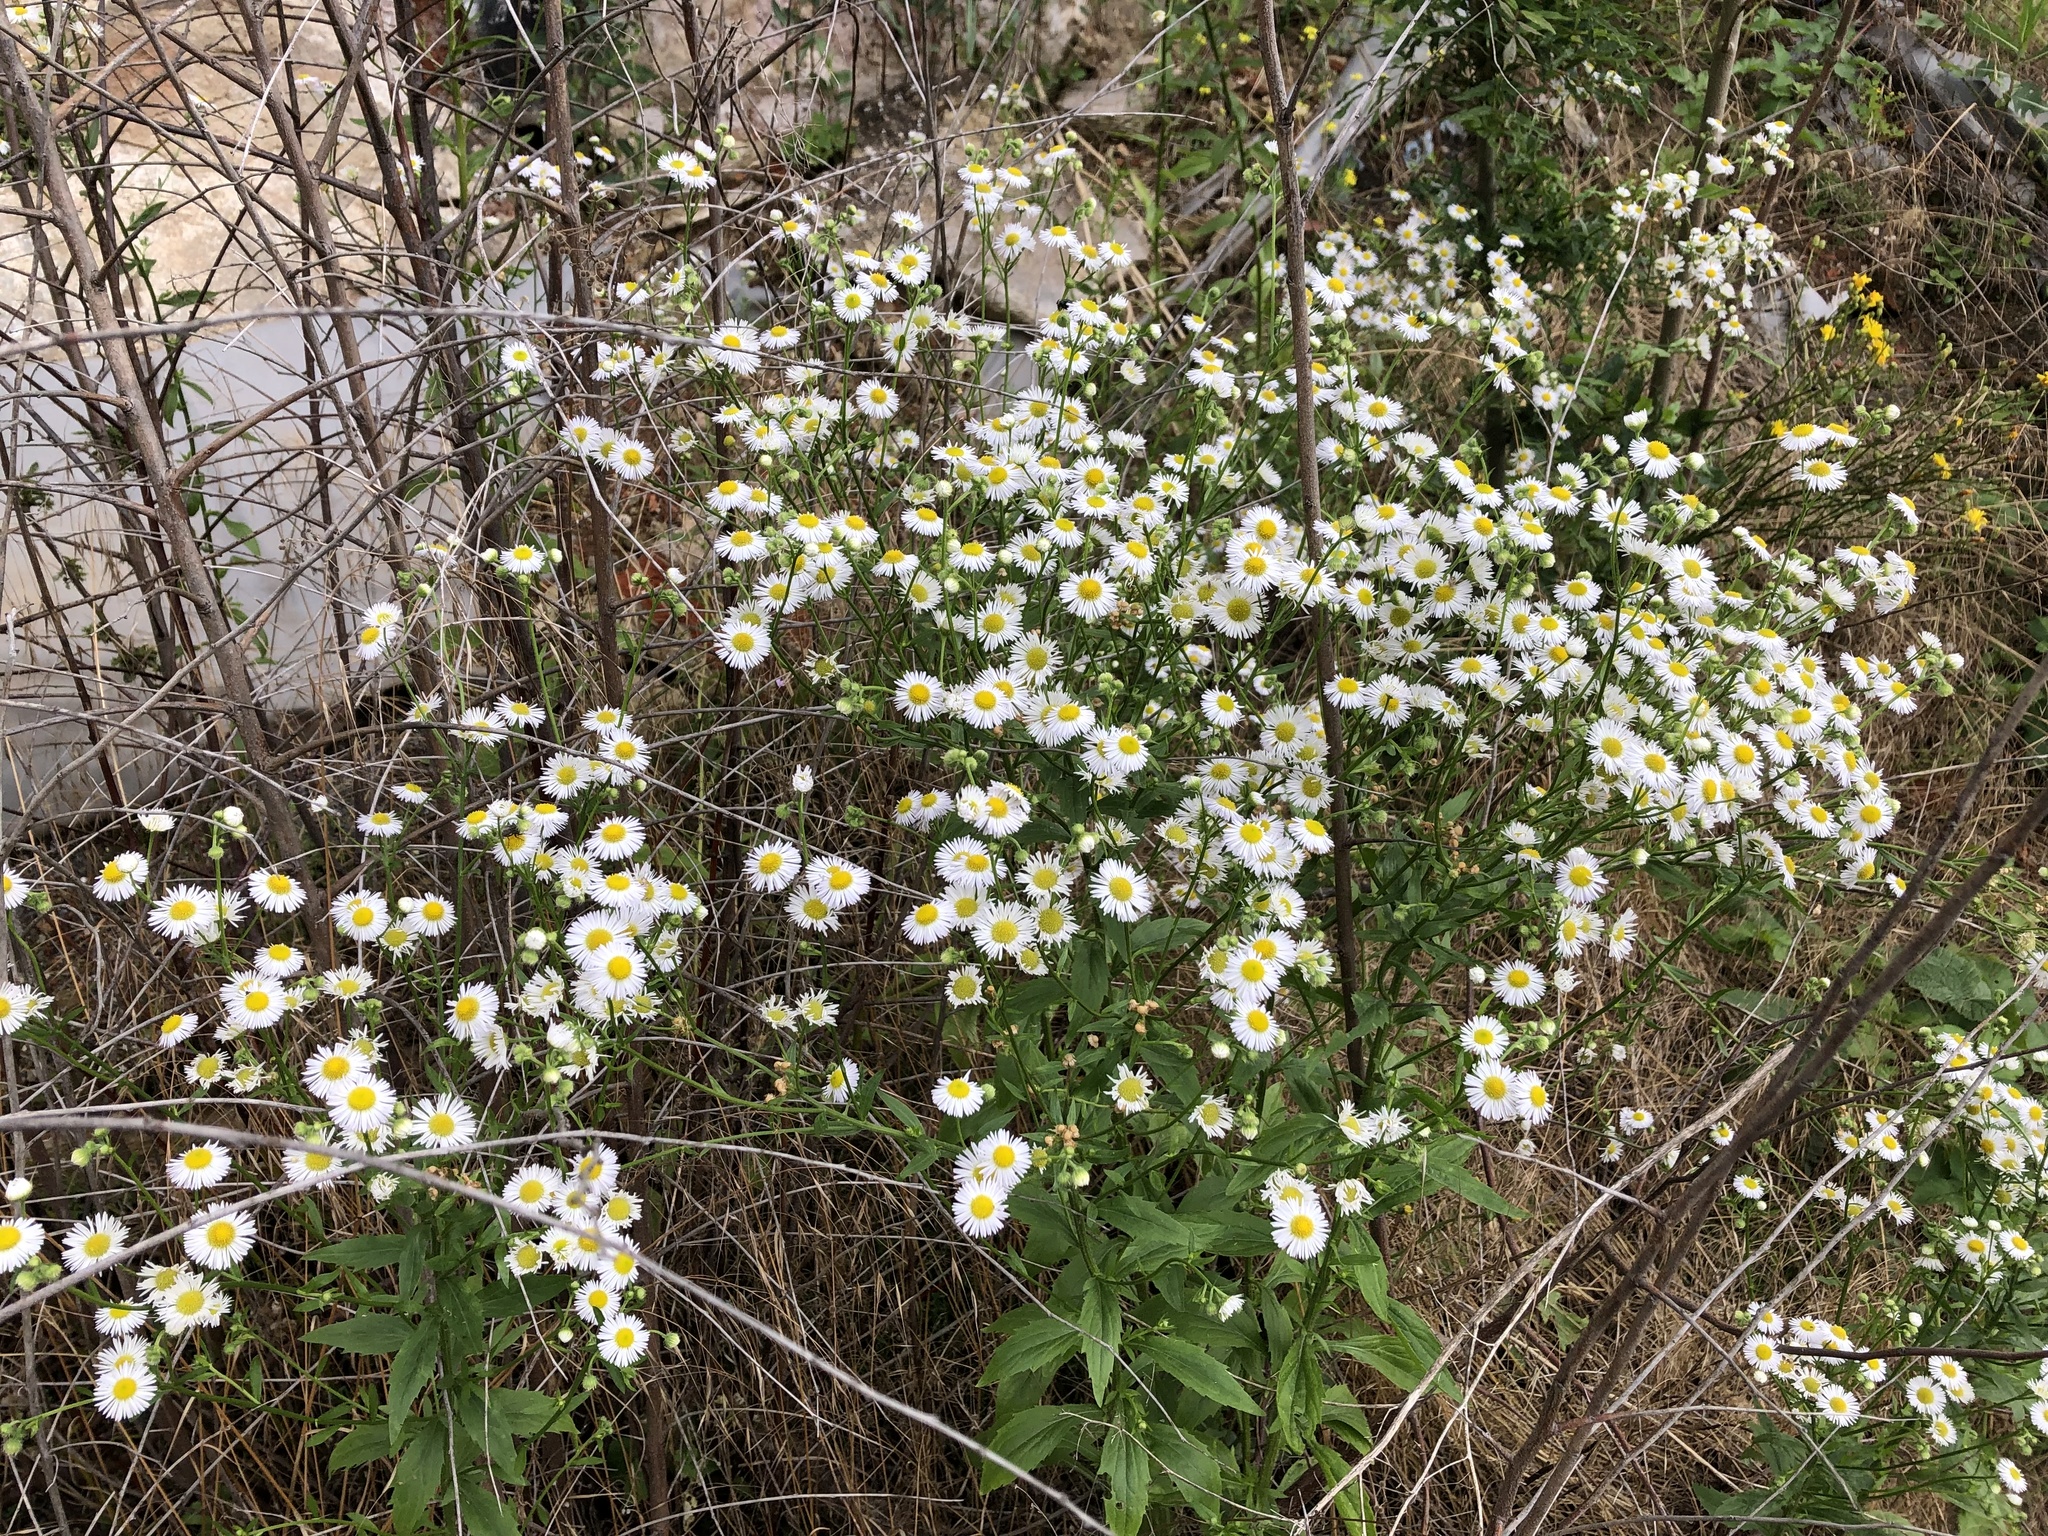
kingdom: Plantae
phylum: Tracheophyta
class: Magnoliopsida
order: Asterales
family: Asteraceae
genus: Erigeron
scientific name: Erigeron annuus
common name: Tall fleabane
